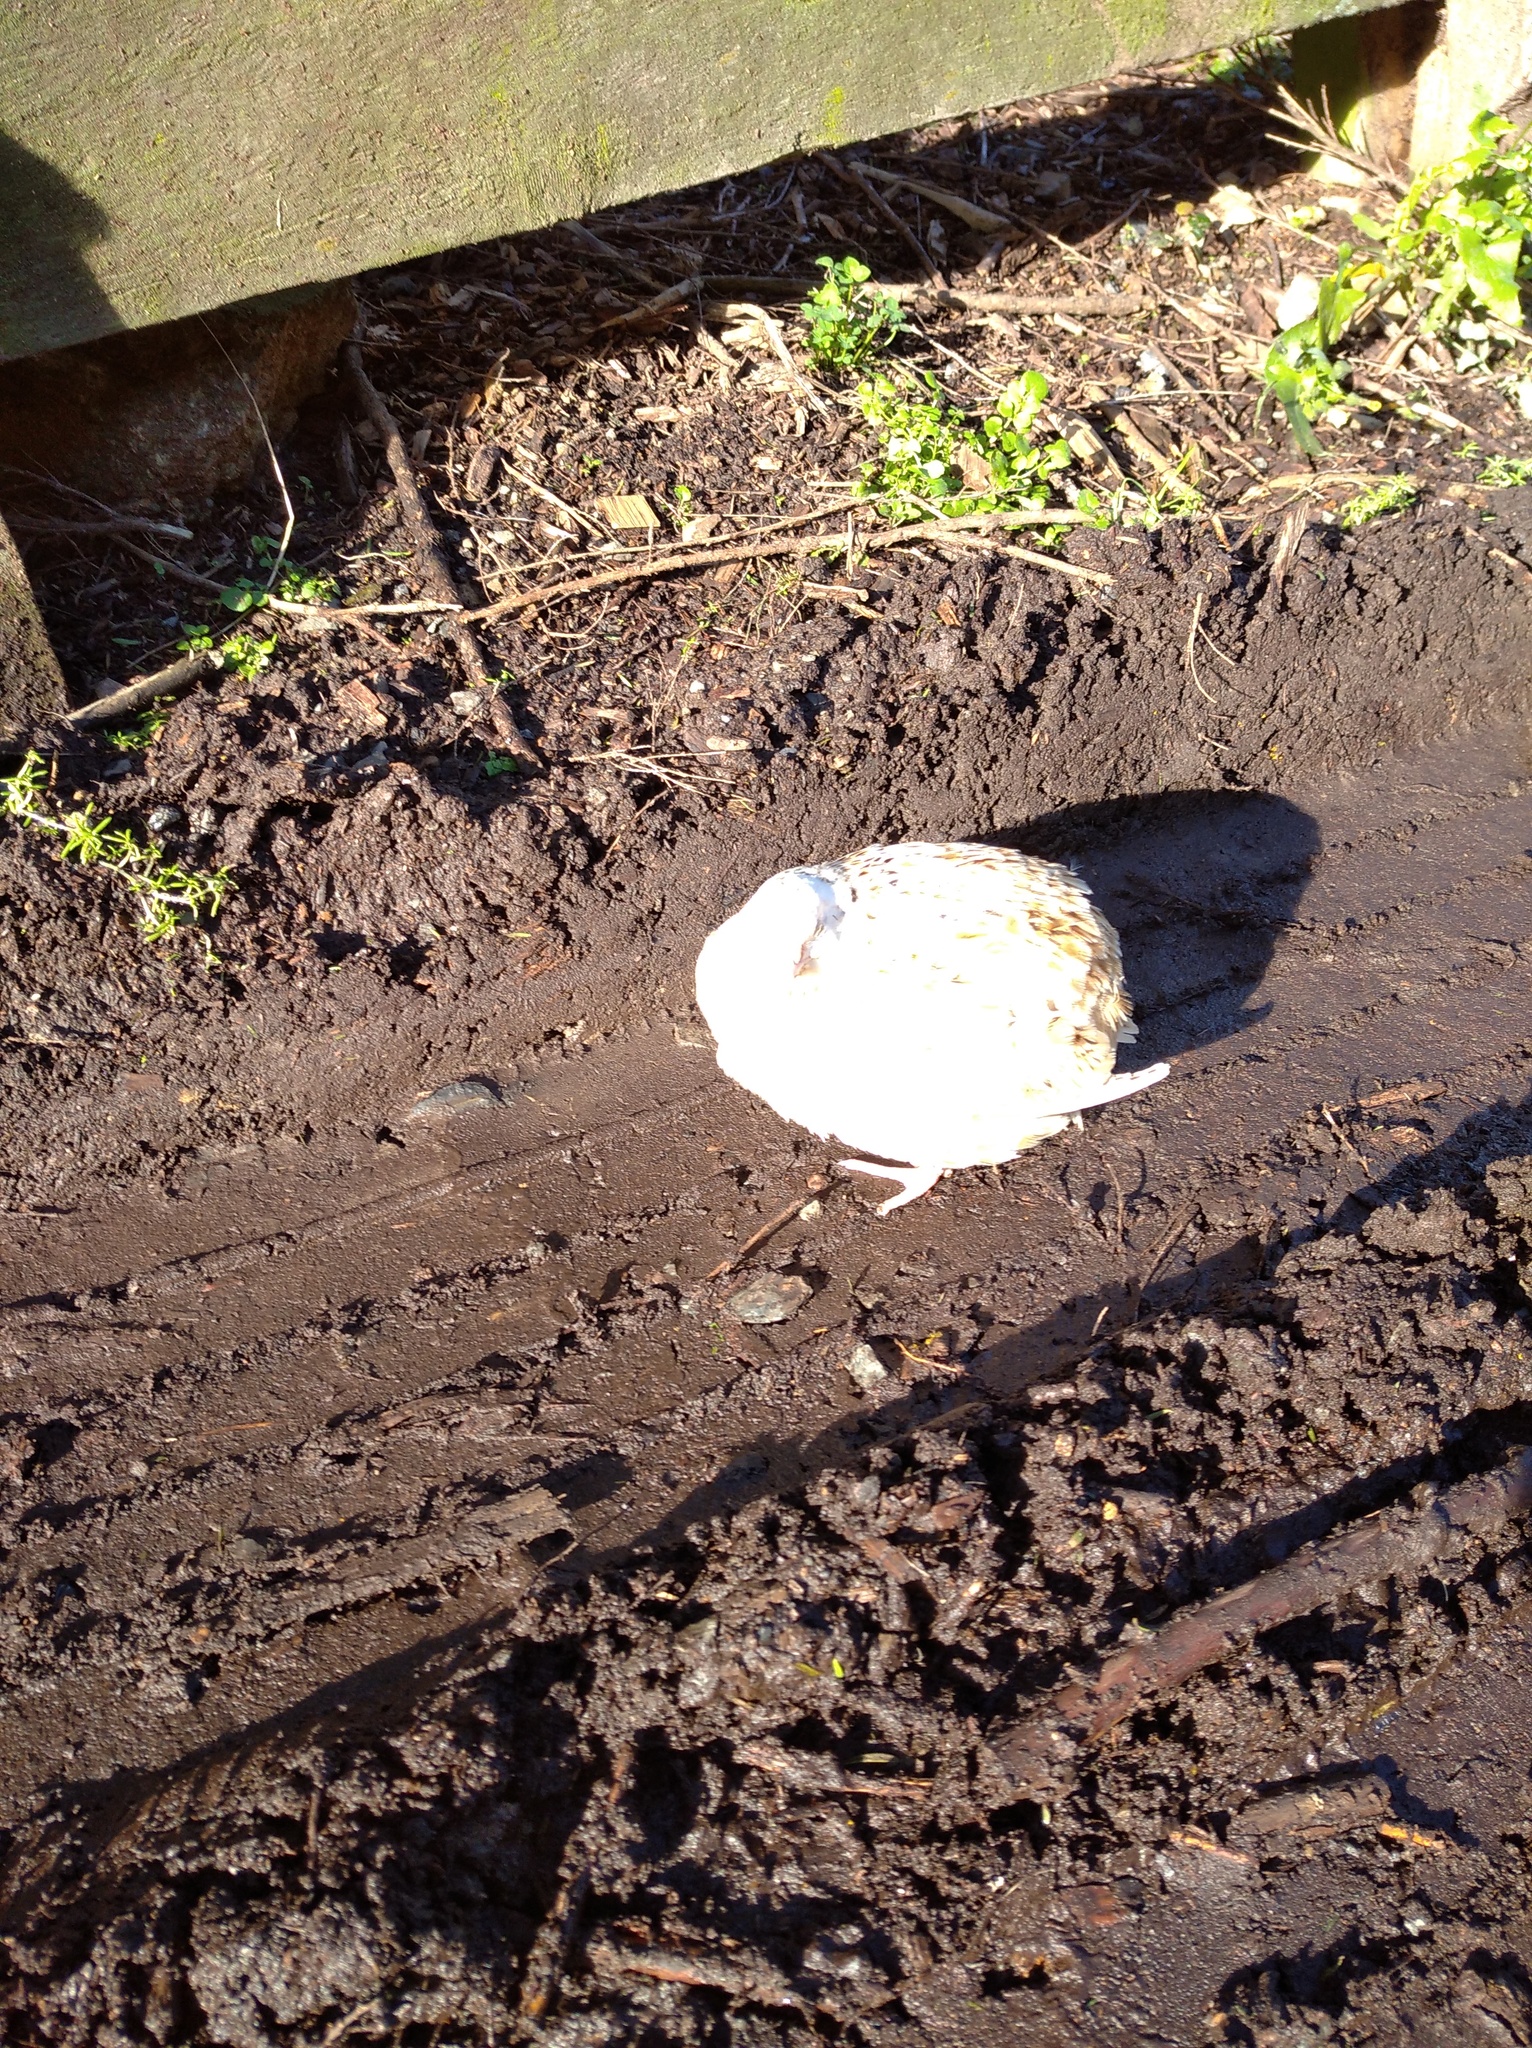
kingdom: Animalia
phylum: Chordata
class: Aves
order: Galliformes
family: Phasianidae
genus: Coturnix
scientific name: Coturnix japonica
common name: Japanese quail
